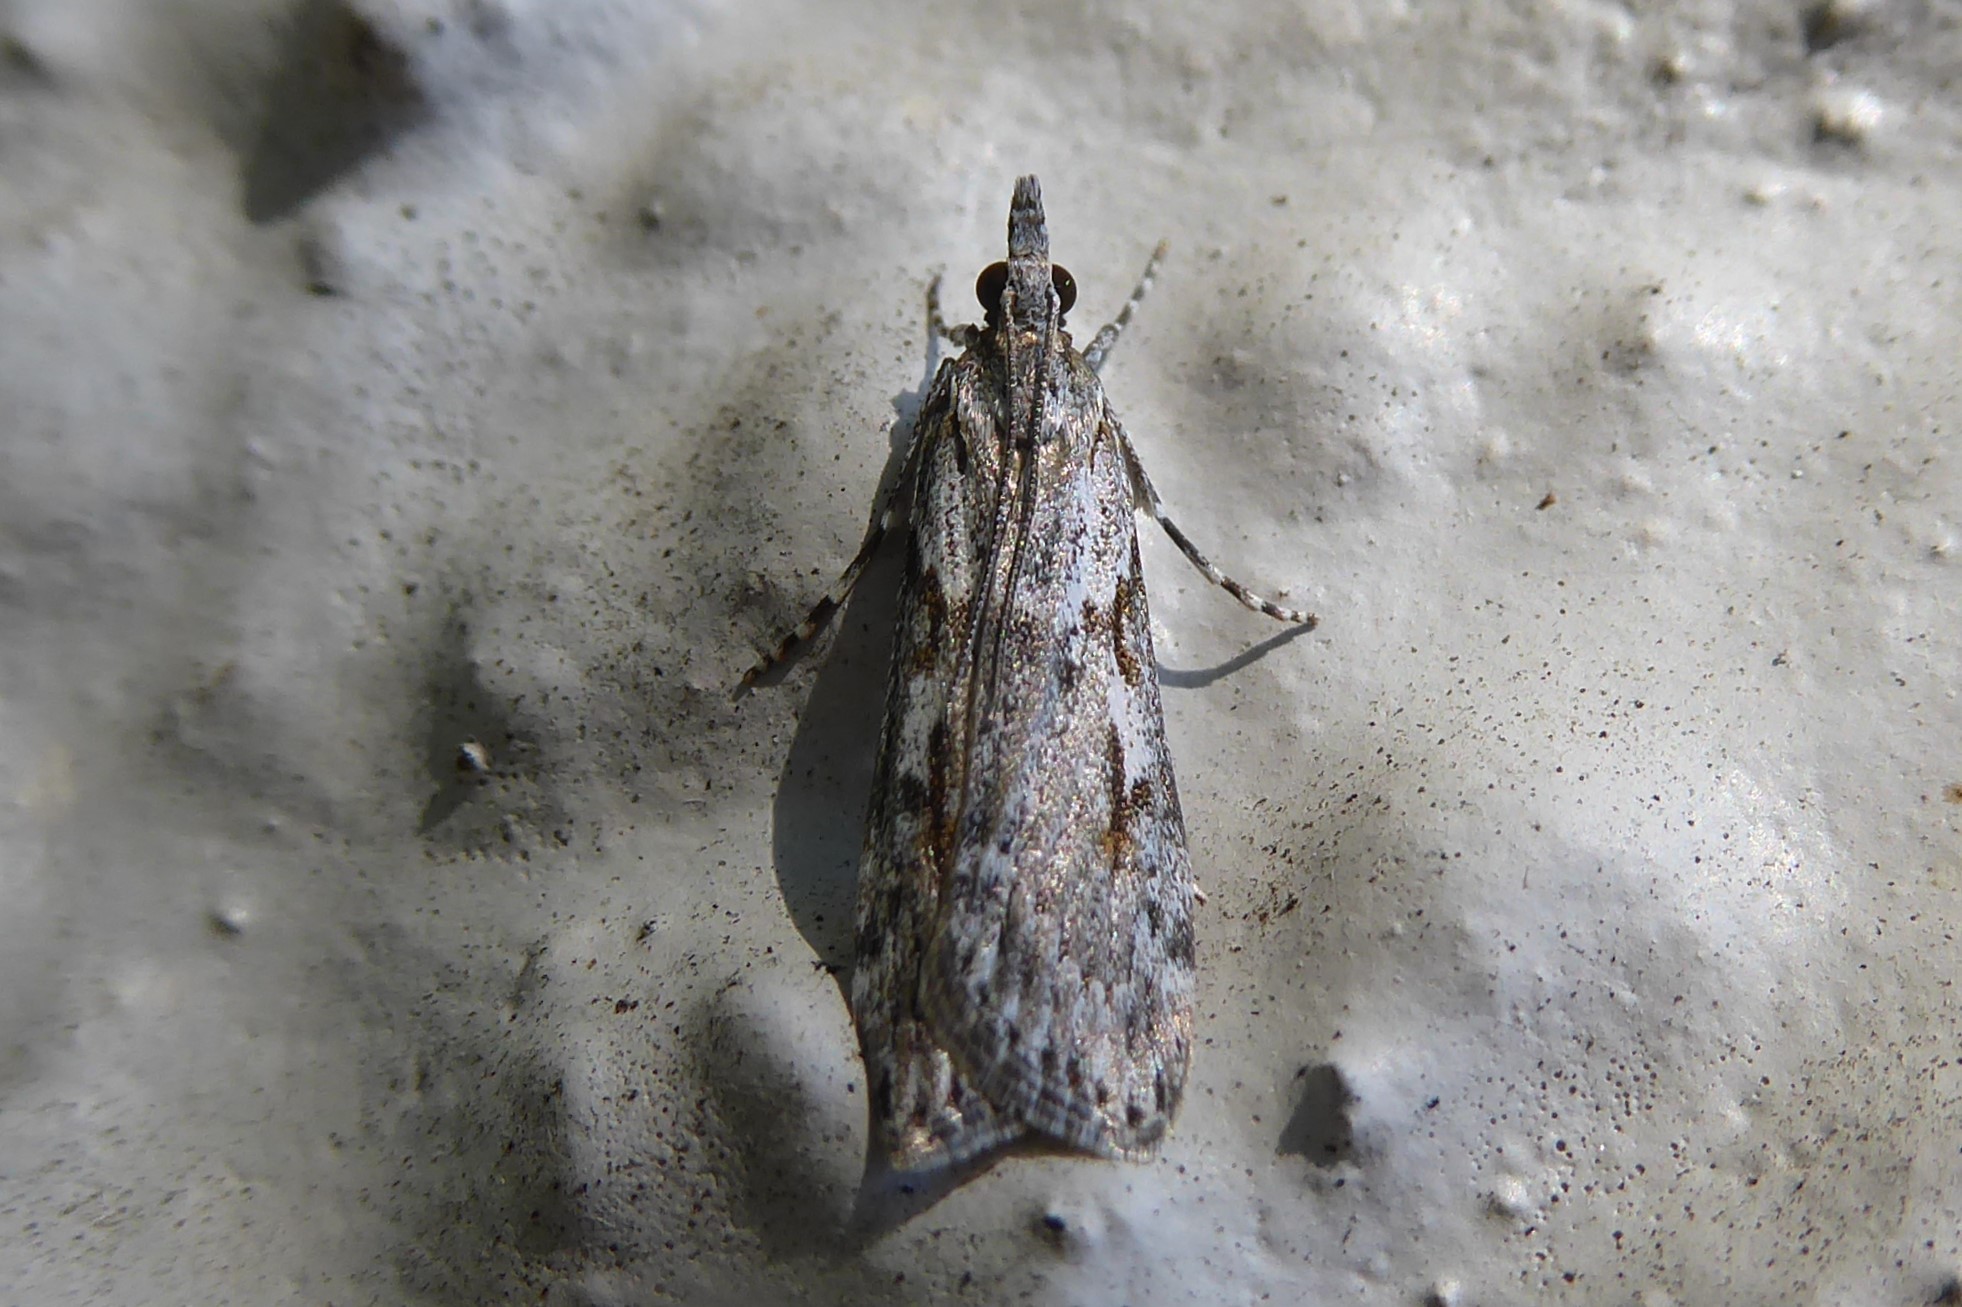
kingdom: Animalia
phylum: Arthropoda
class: Insecta
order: Lepidoptera
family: Crambidae
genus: Scoparia
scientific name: Scoparia halopis
